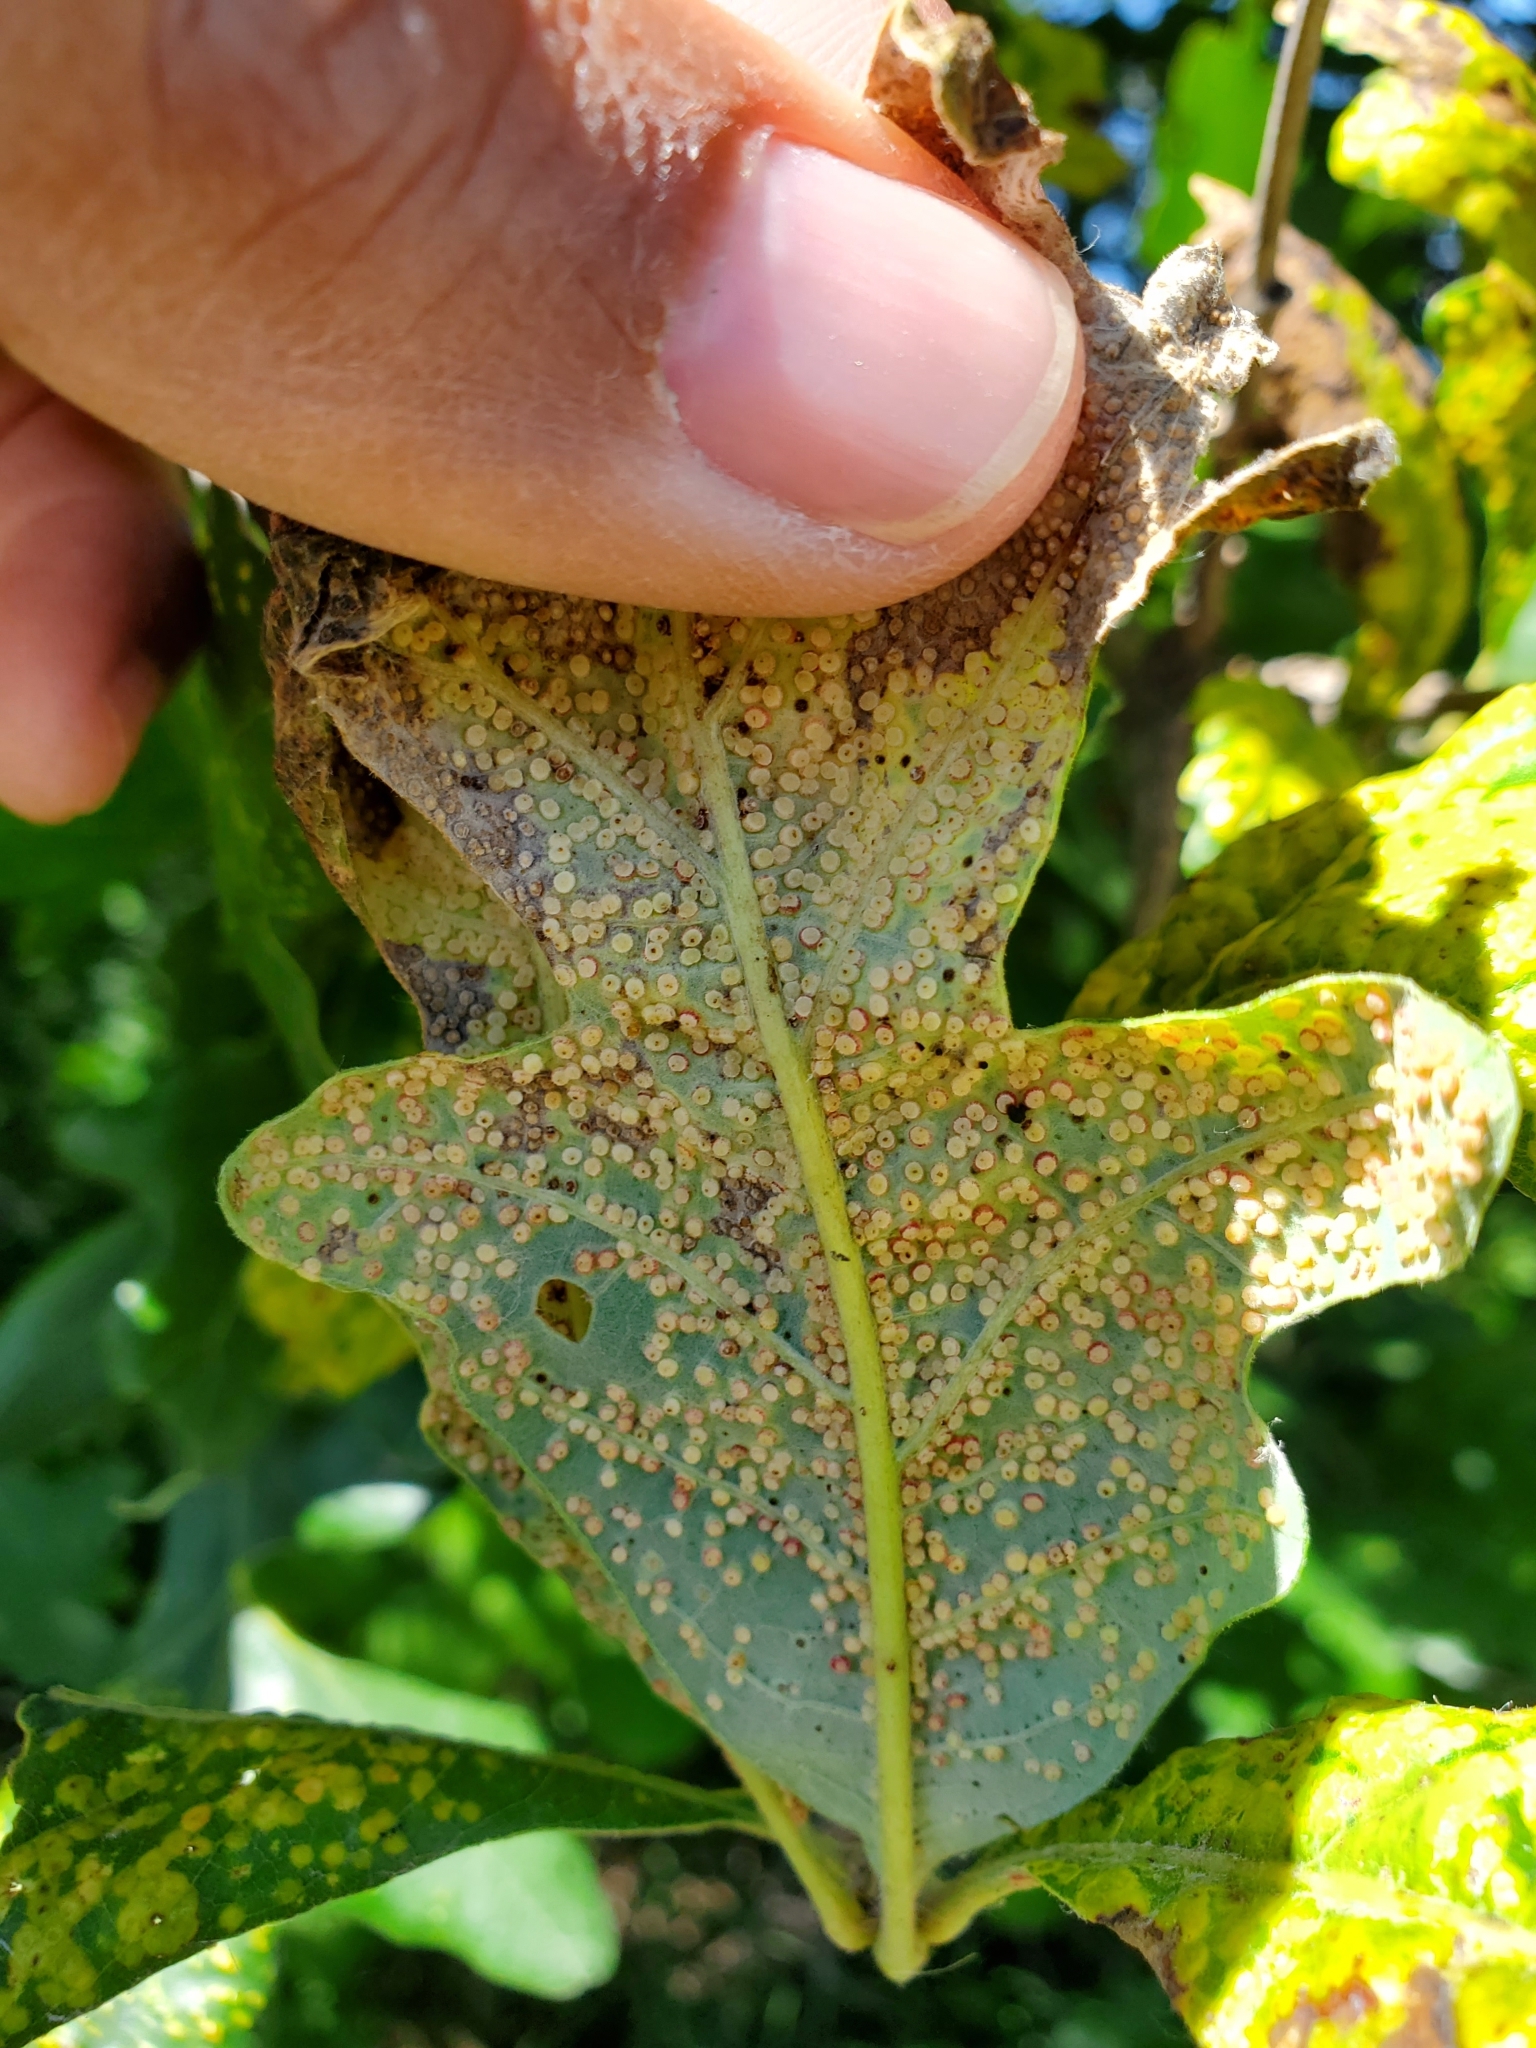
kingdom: Animalia
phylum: Arthropoda
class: Insecta
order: Hymenoptera
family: Cynipidae
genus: Neuroterus
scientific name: Neuroterus saltarius
